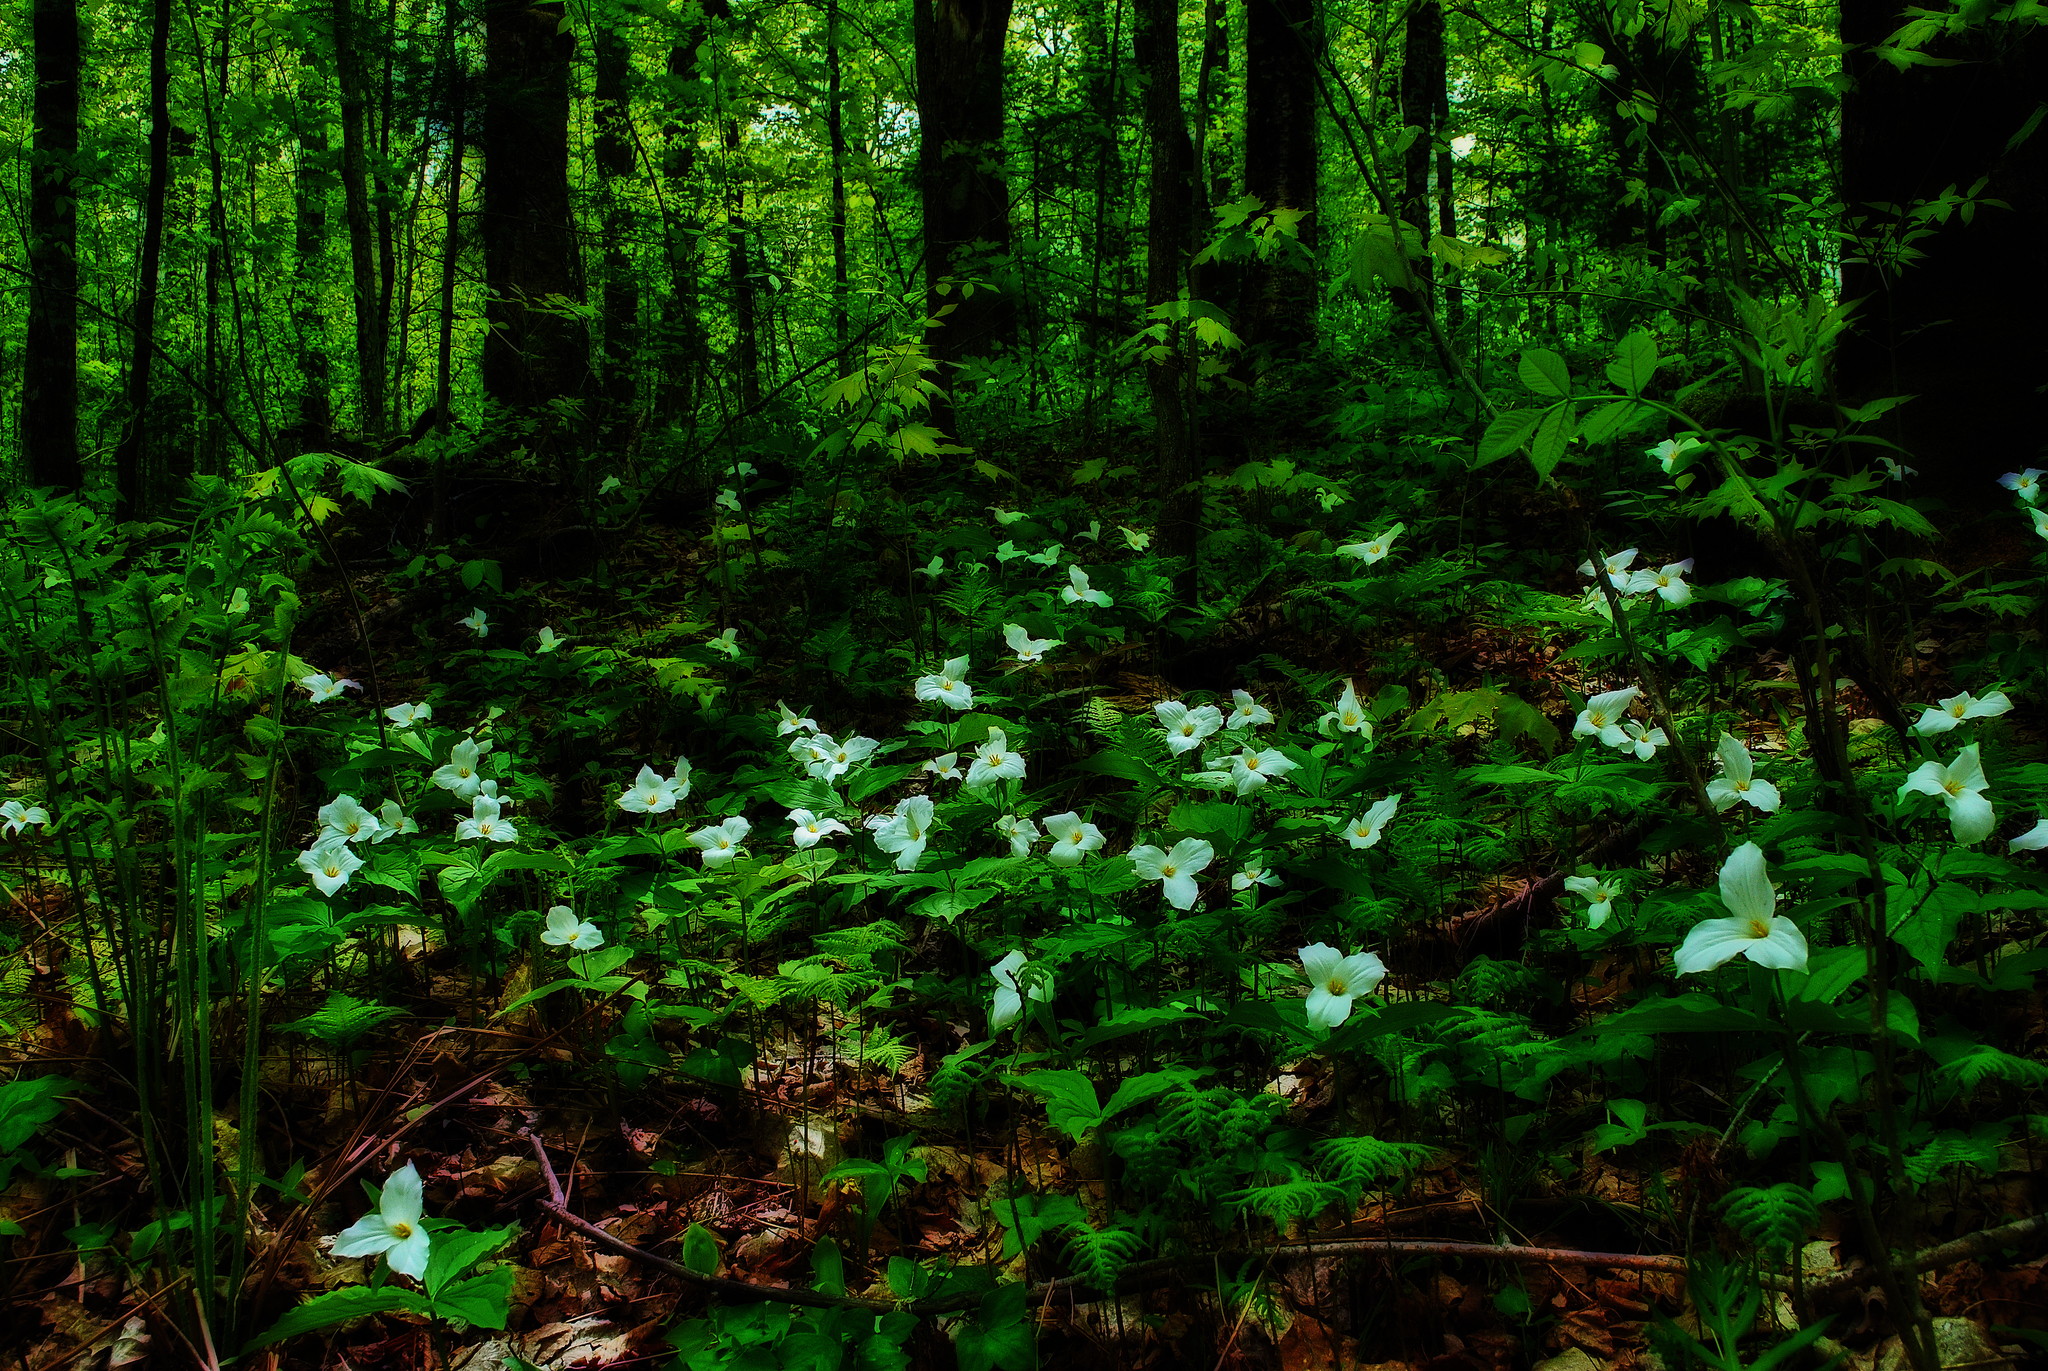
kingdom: Plantae
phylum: Tracheophyta
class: Liliopsida
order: Liliales
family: Melanthiaceae
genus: Trillium
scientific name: Trillium grandiflorum
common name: Great white trillium
